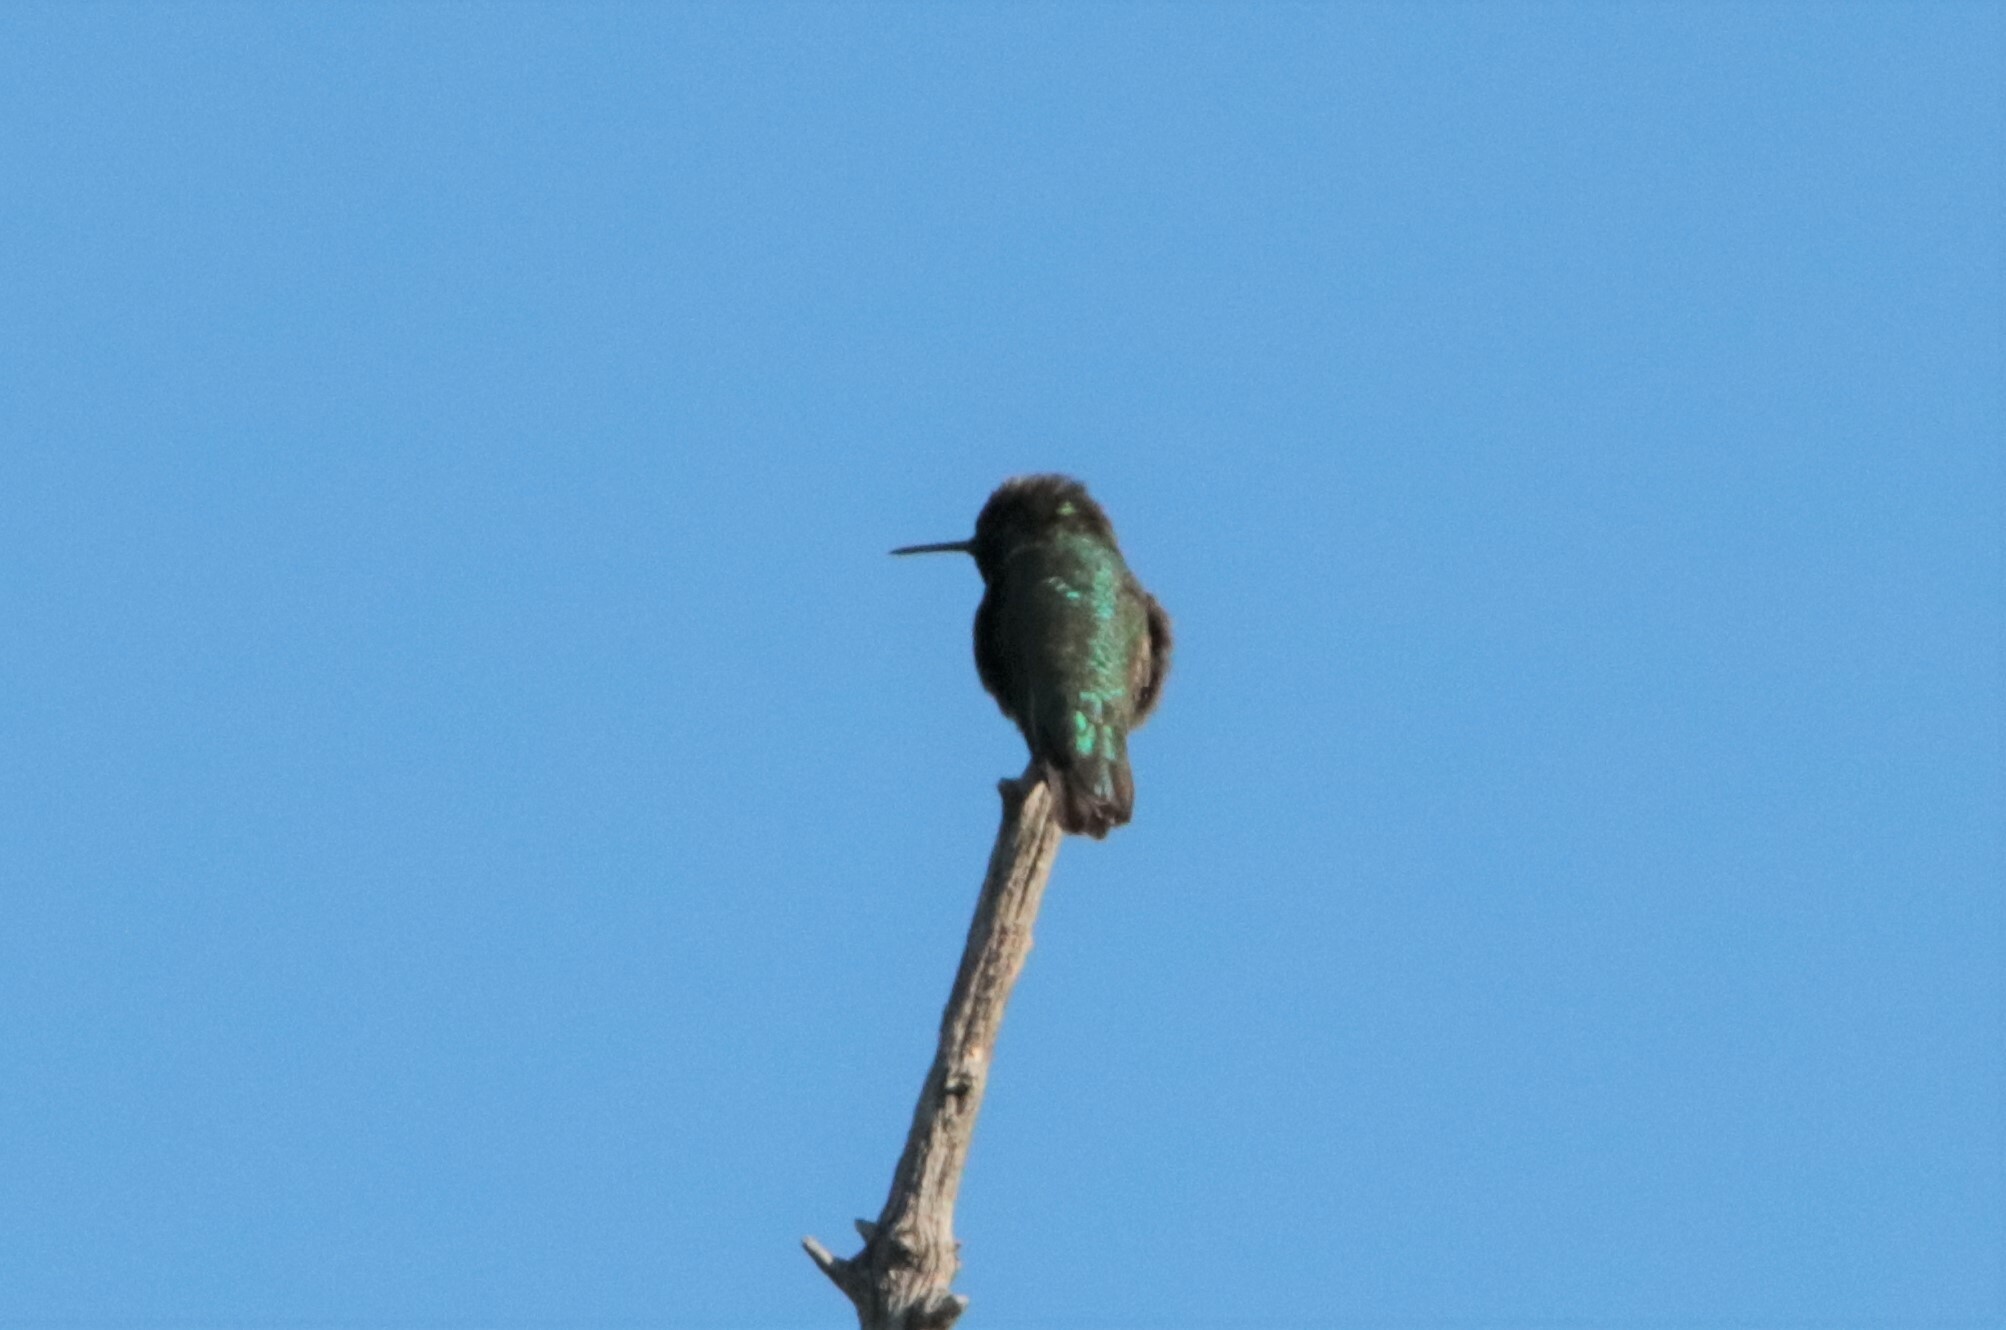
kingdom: Animalia
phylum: Chordata
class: Aves
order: Apodiformes
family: Trochilidae
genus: Calypte
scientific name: Calypte anna
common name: Anna's hummingbird
